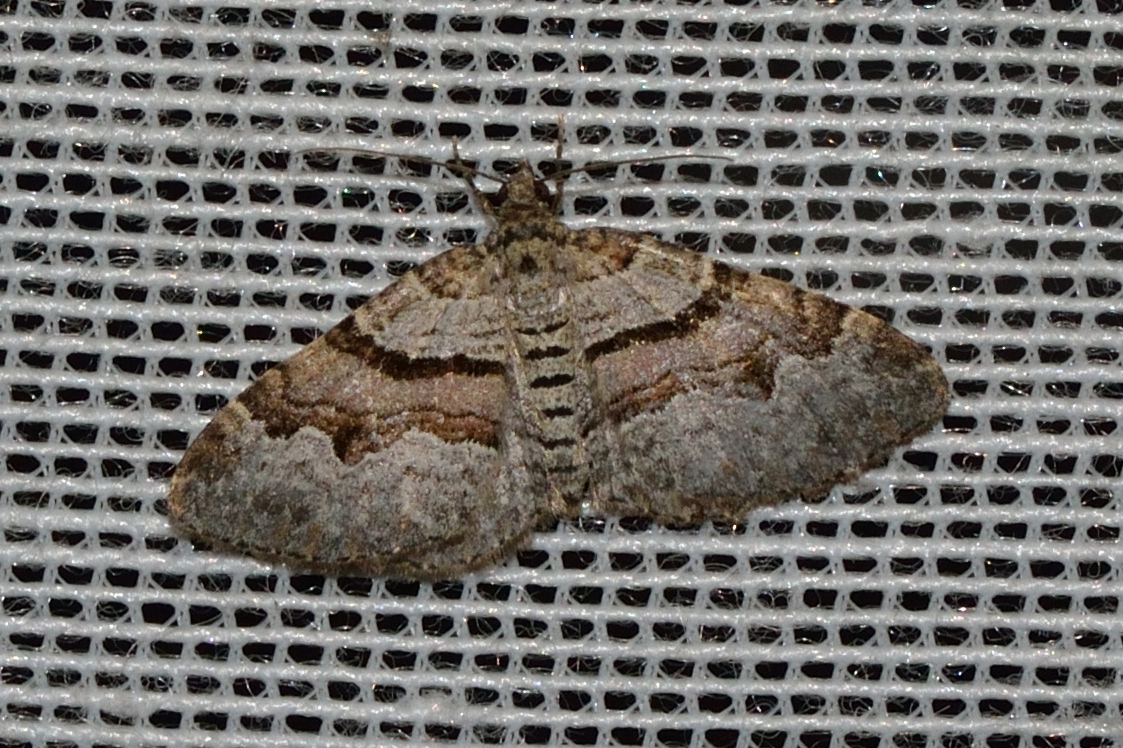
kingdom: Animalia
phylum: Arthropoda
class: Insecta
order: Lepidoptera
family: Geometridae
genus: Xanthorhoe
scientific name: Xanthorhoe designata
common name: Flame carpet
